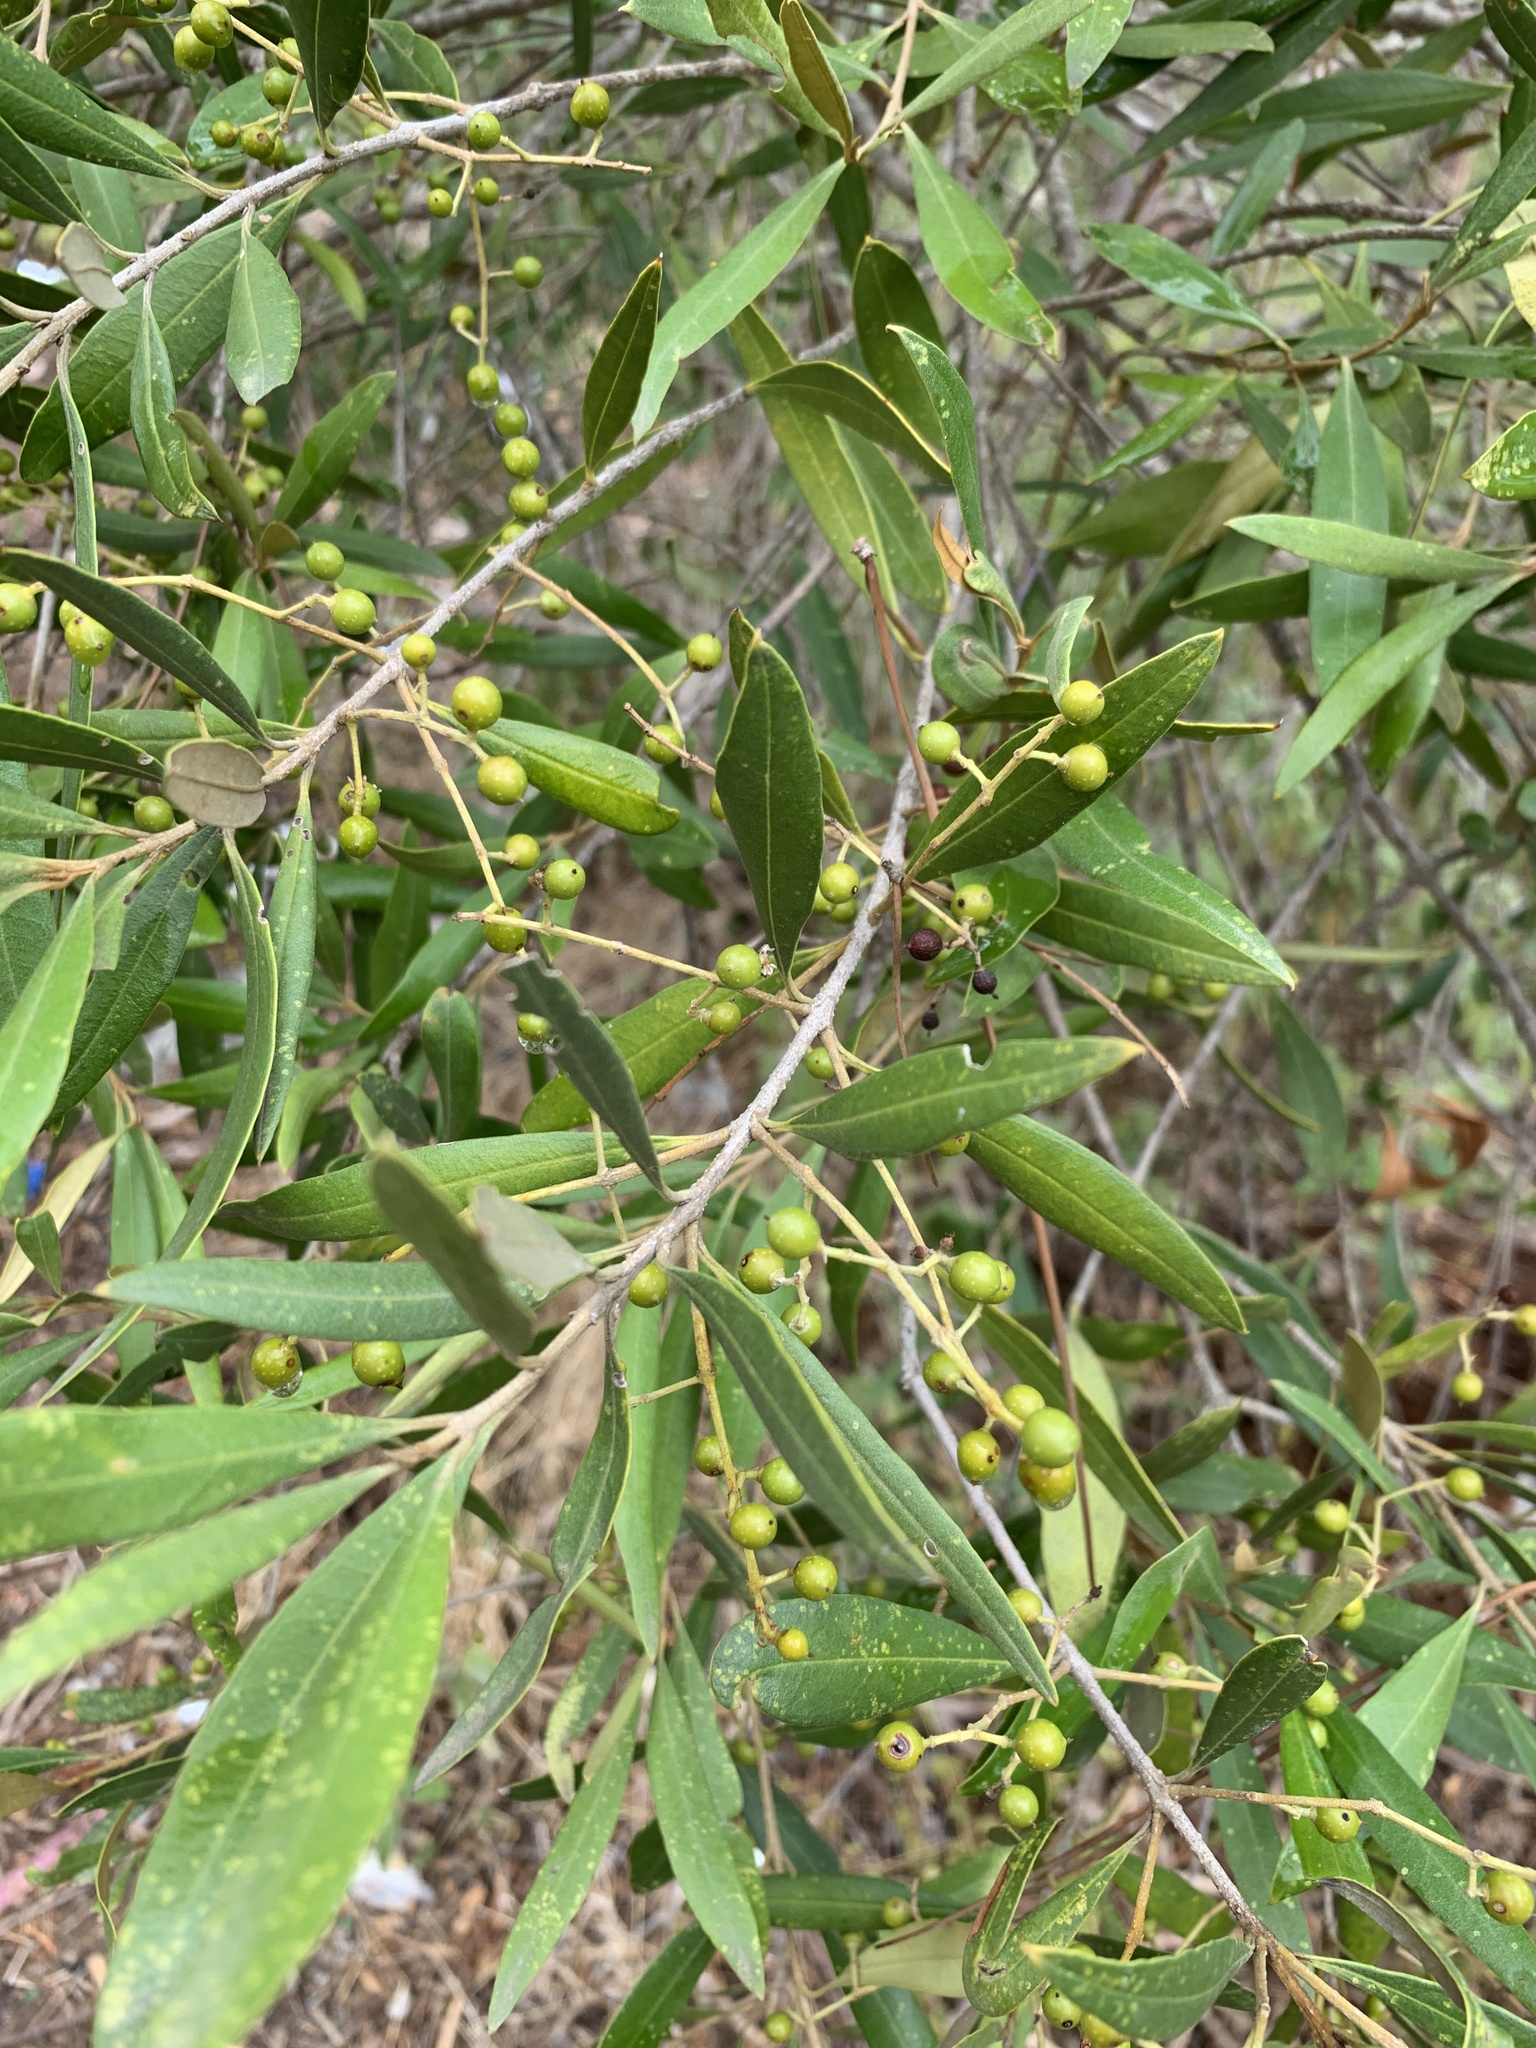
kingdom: Plantae
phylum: Tracheophyta
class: Magnoliopsida
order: Lamiales
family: Oleaceae
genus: Olea
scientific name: Olea europaea
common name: Olive
